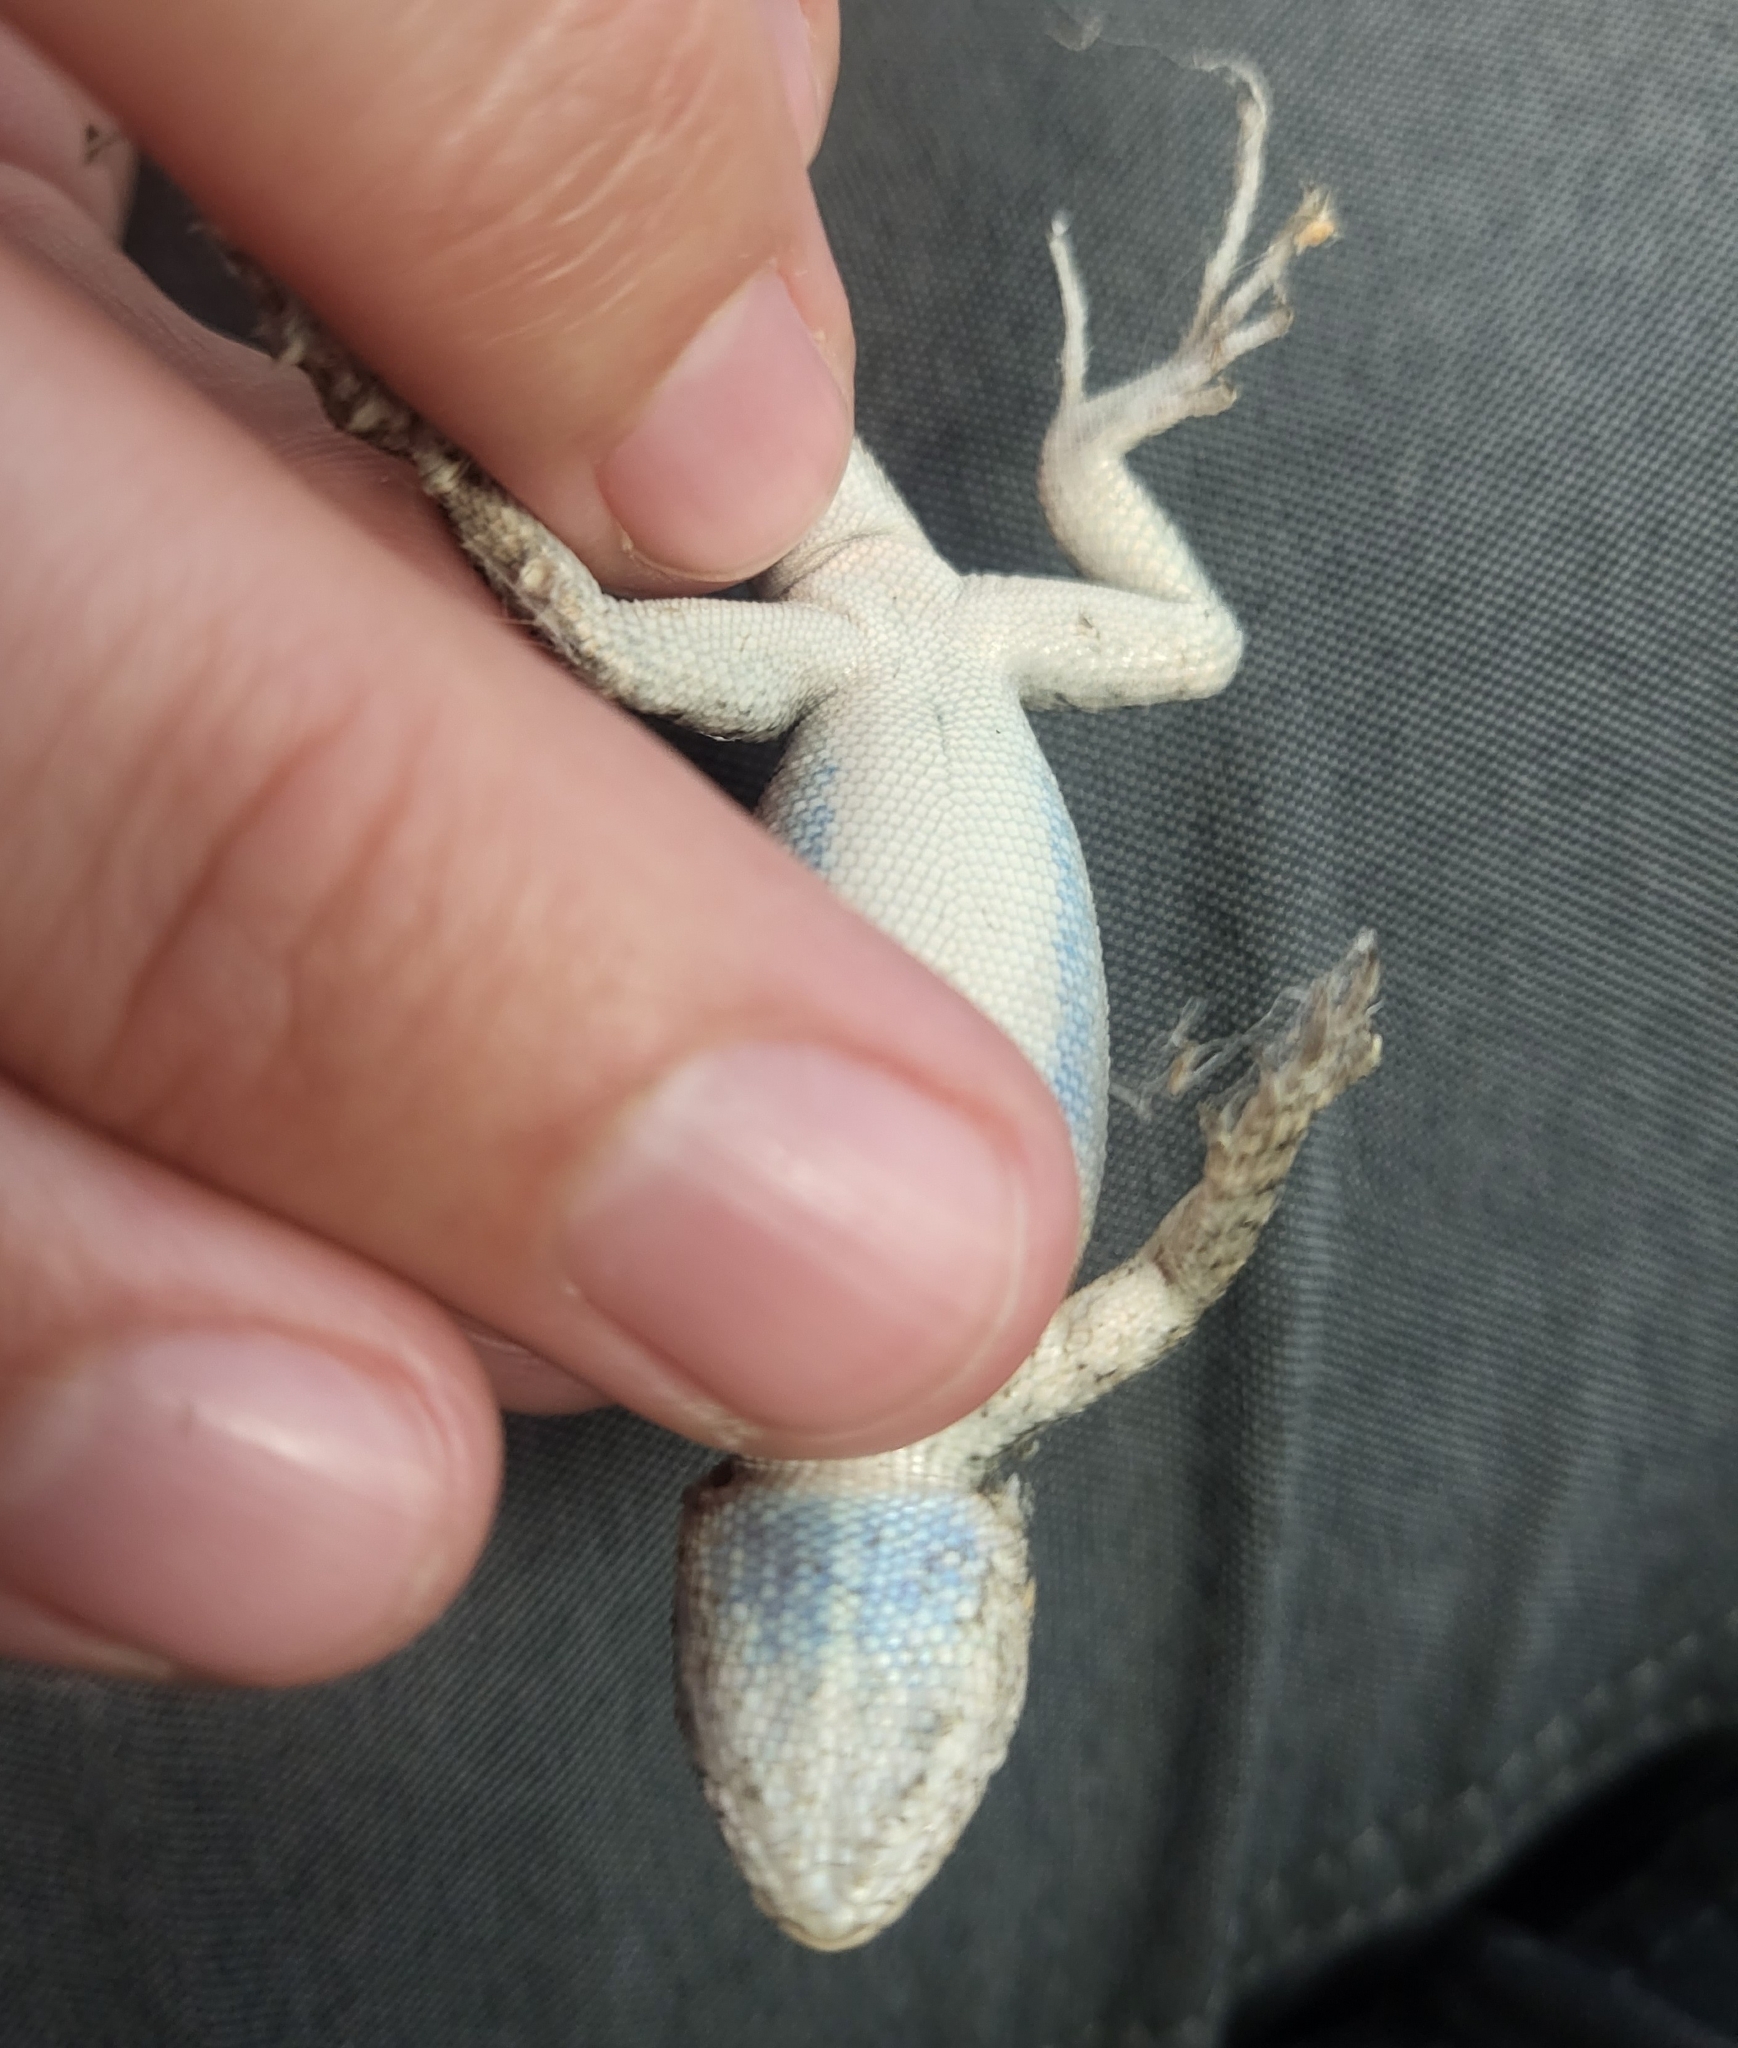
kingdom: Animalia
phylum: Chordata
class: Squamata
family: Phrynosomatidae
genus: Sceloporus
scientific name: Sceloporus occidentalis
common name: Western fence lizard
